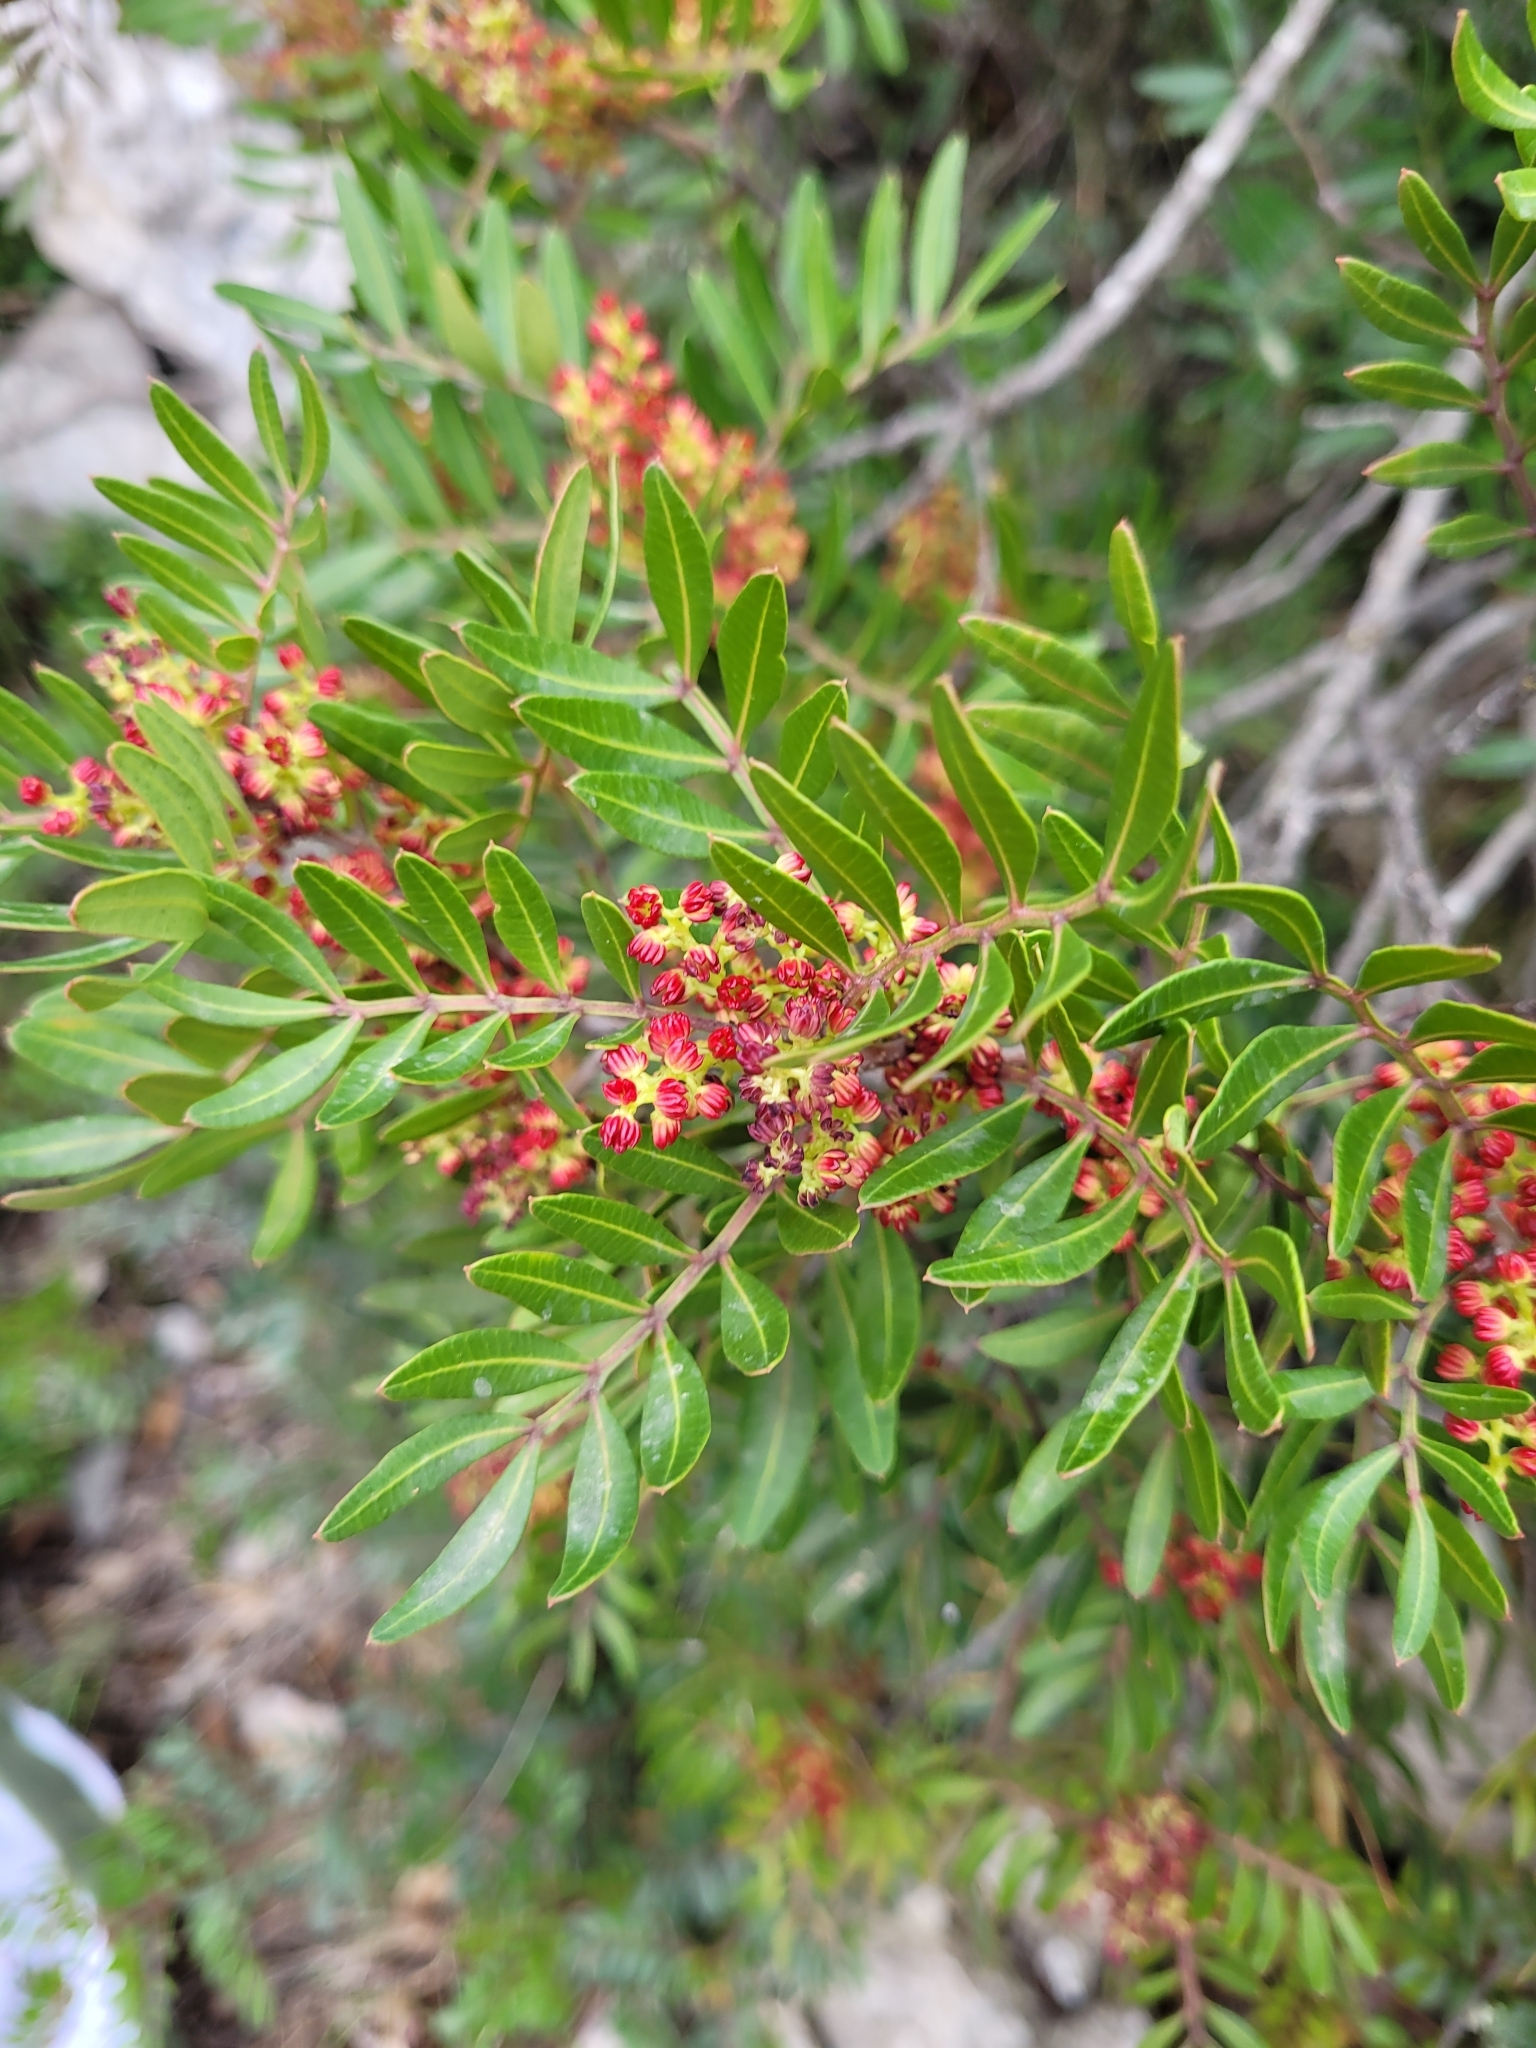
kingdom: Plantae
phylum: Tracheophyta
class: Magnoliopsida
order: Sapindales
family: Anacardiaceae
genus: Pistacia
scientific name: Pistacia lentiscus
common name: Lentisk
